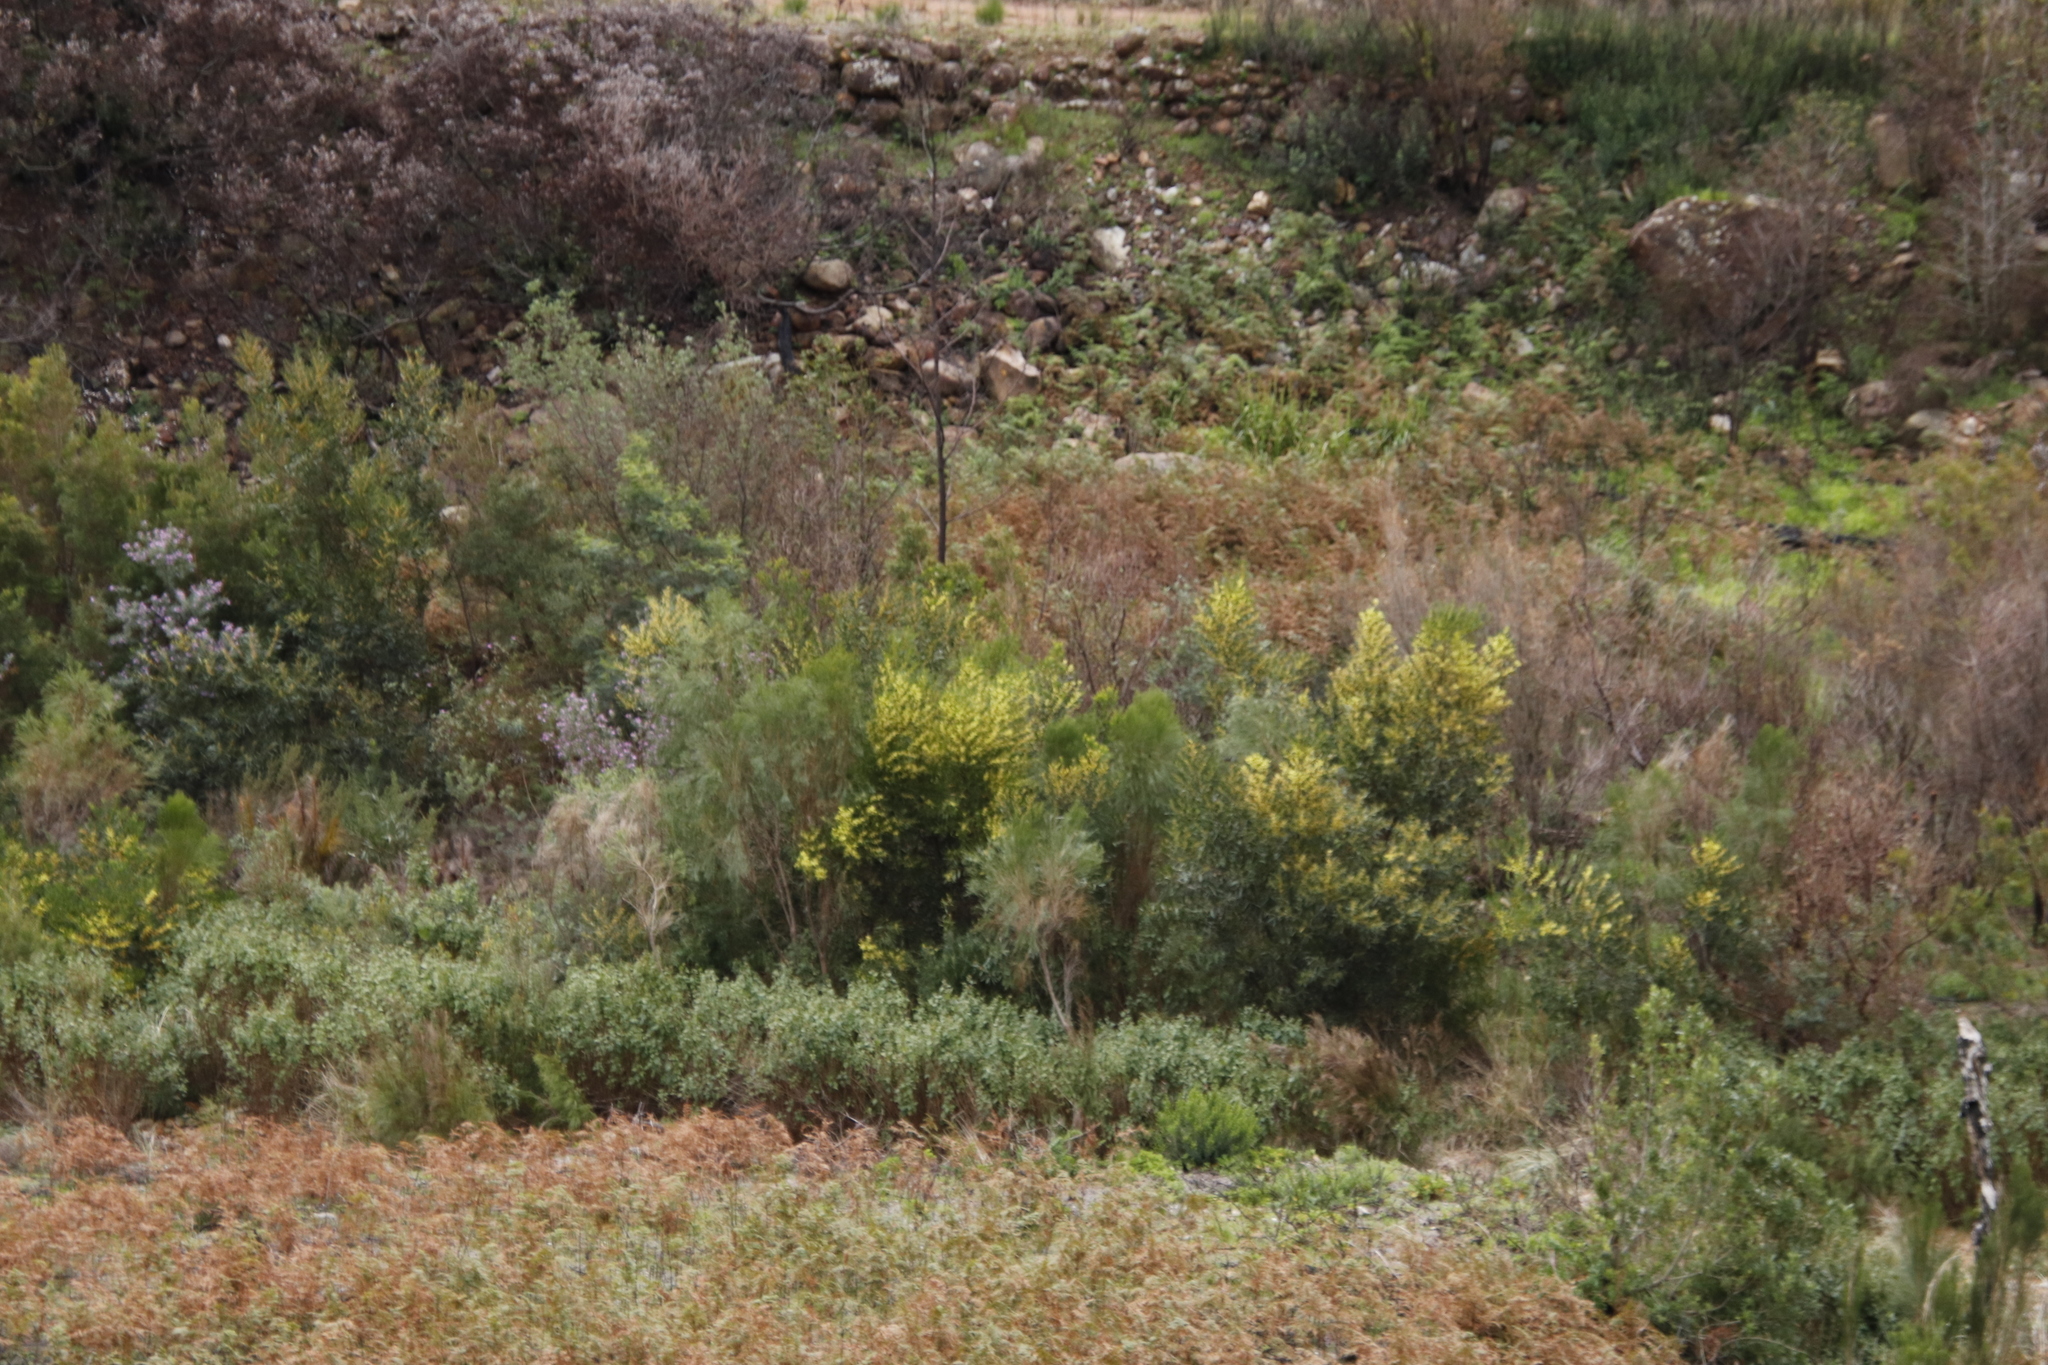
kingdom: Plantae
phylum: Tracheophyta
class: Magnoliopsida
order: Fabales
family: Fabaceae
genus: Acacia
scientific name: Acacia longifolia
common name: Sydney golden wattle
